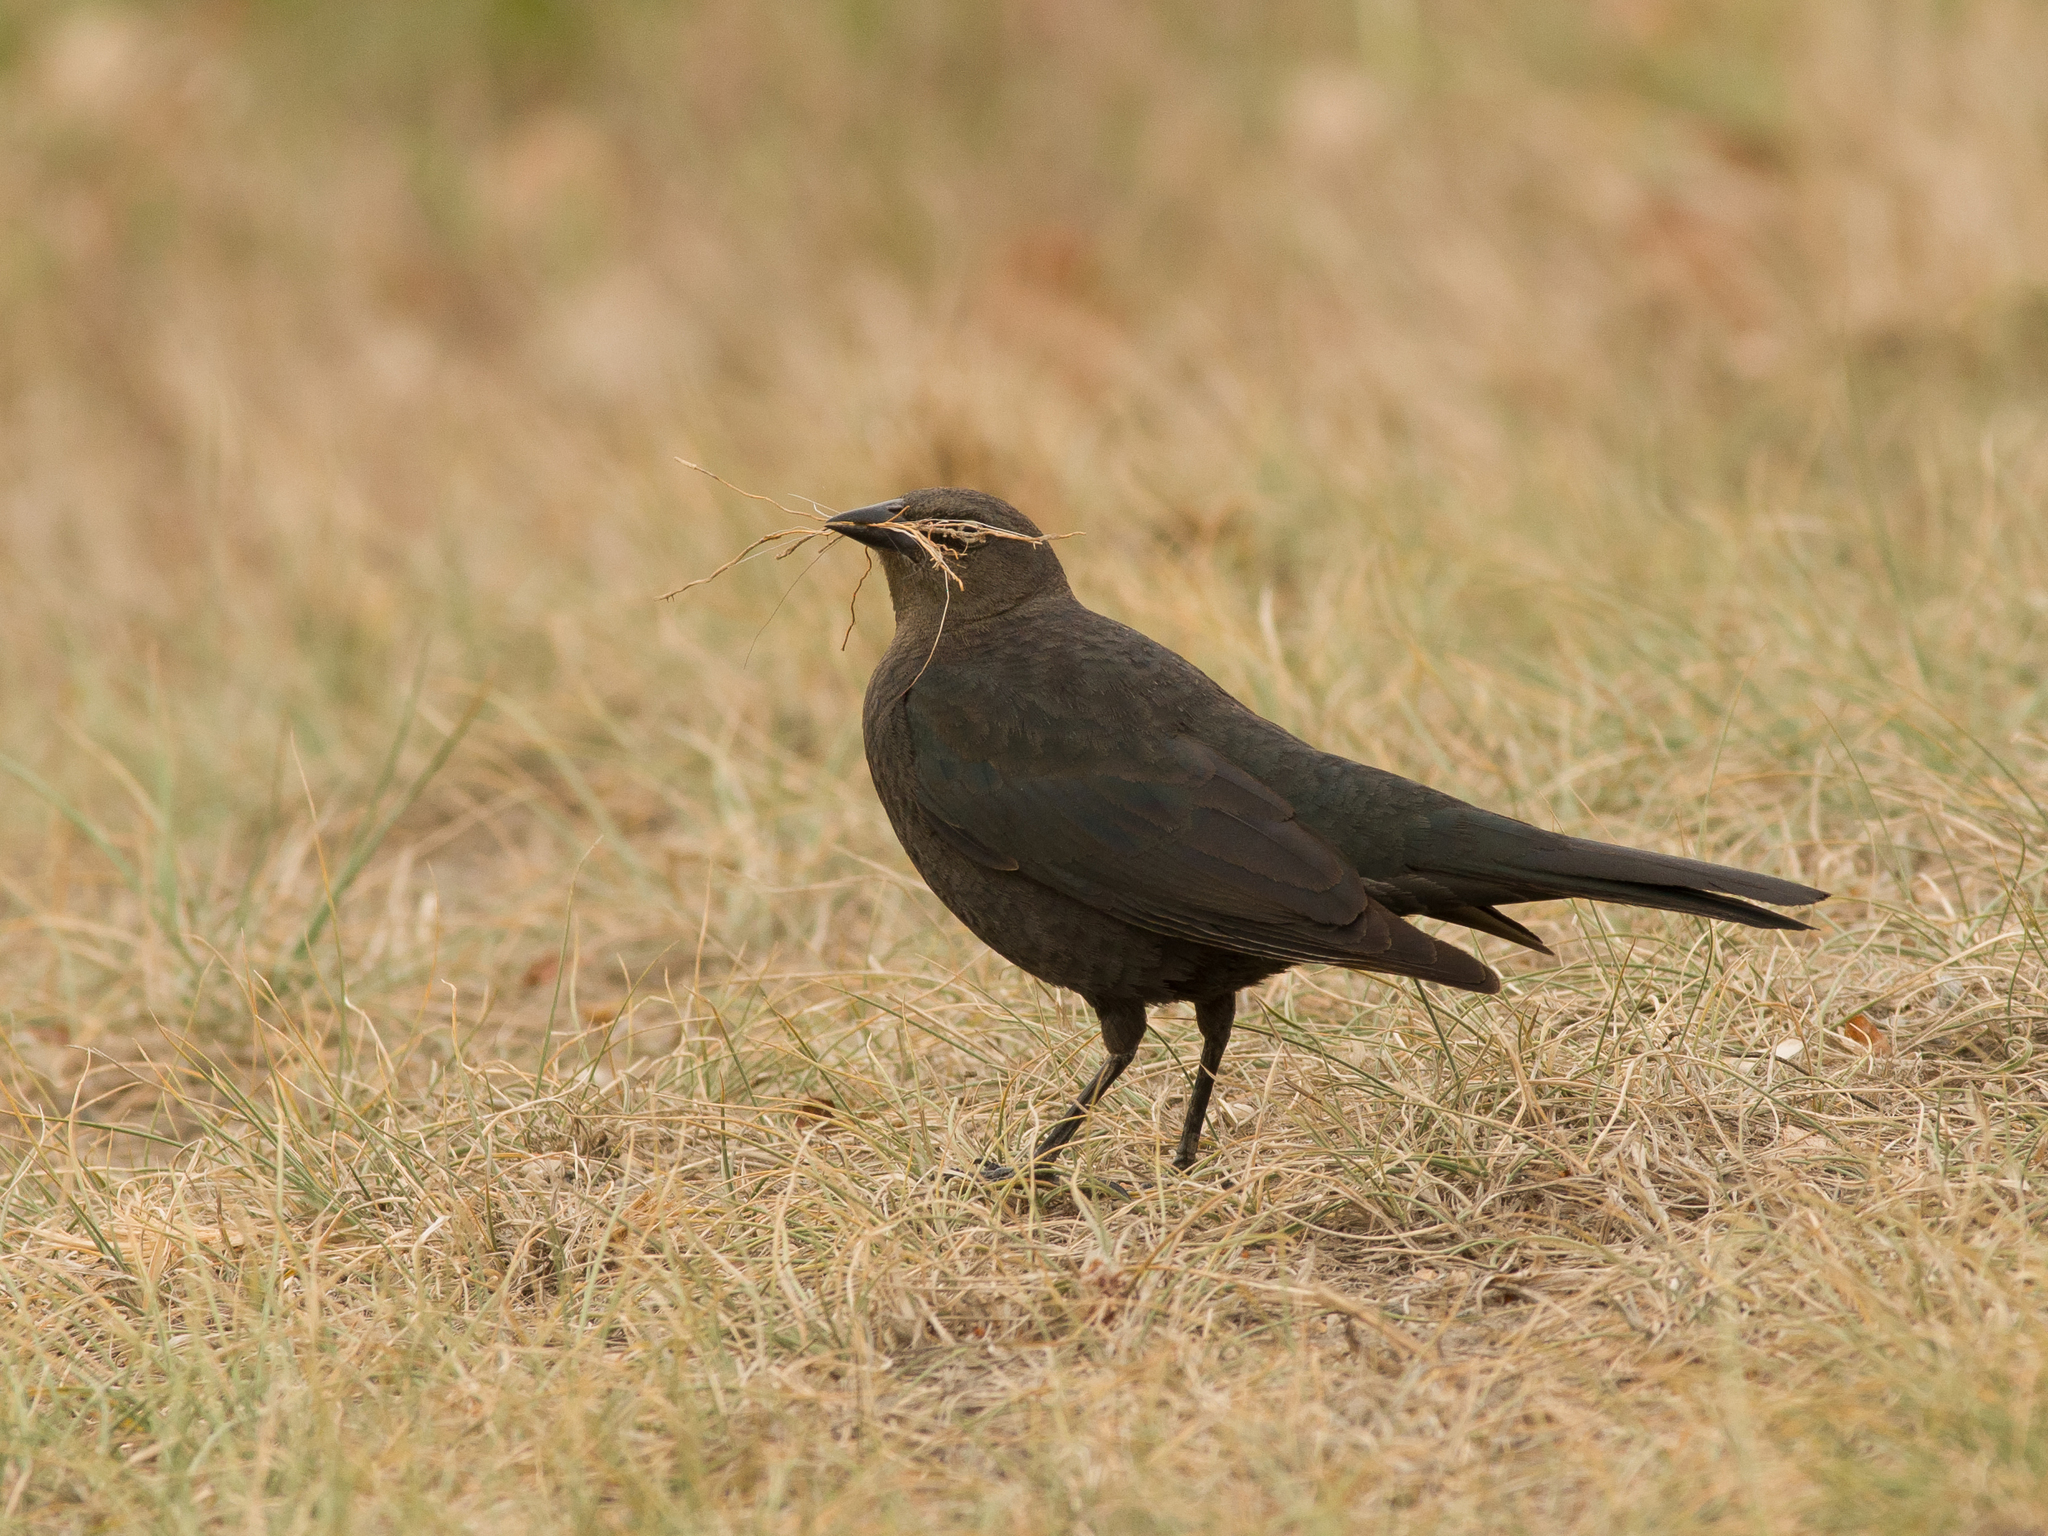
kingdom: Animalia
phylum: Chordata
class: Aves
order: Passeriformes
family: Icteridae
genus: Euphagus
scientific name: Euphagus cyanocephalus
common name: Brewer's blackbird
